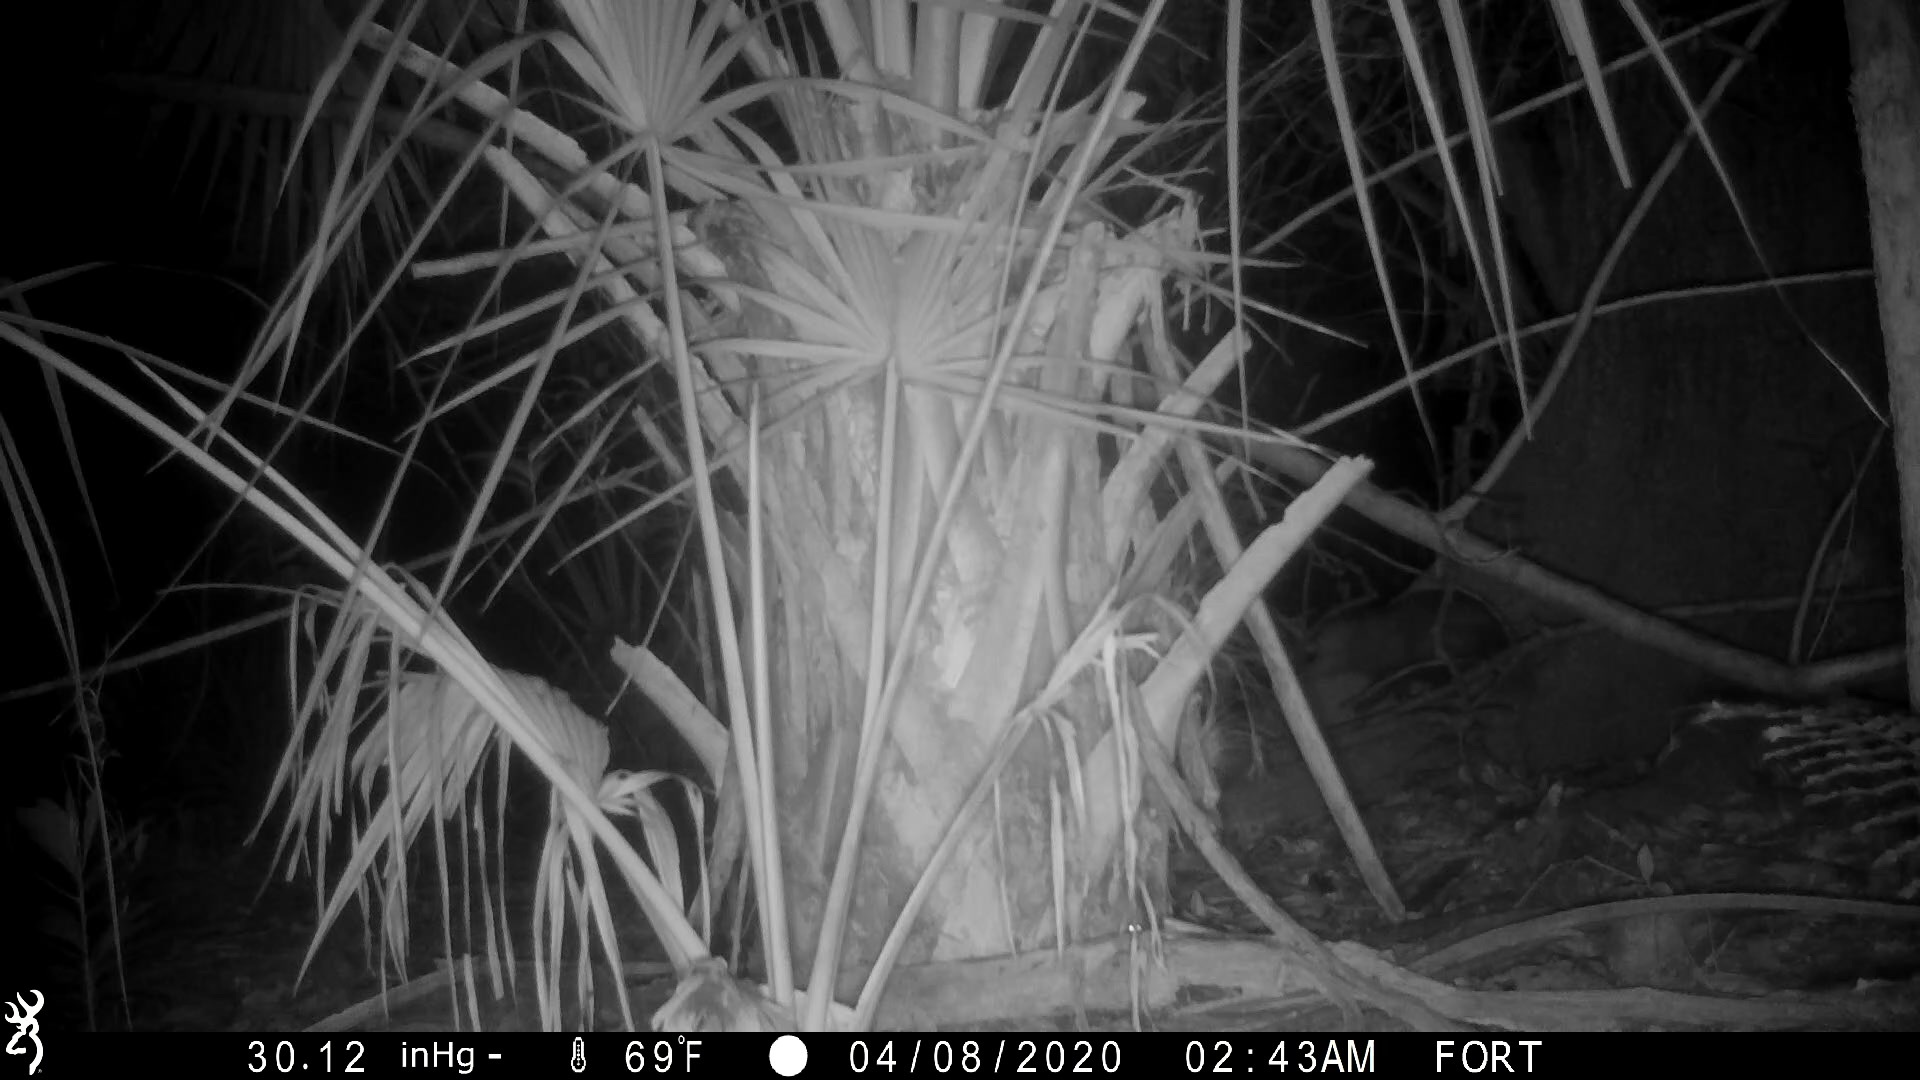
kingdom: Animalia
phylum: Chordata
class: Mammalia
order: Didelphimorphia
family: Didelphidae
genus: Didelphis
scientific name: Didelphis virginiana
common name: Virginia opossum
